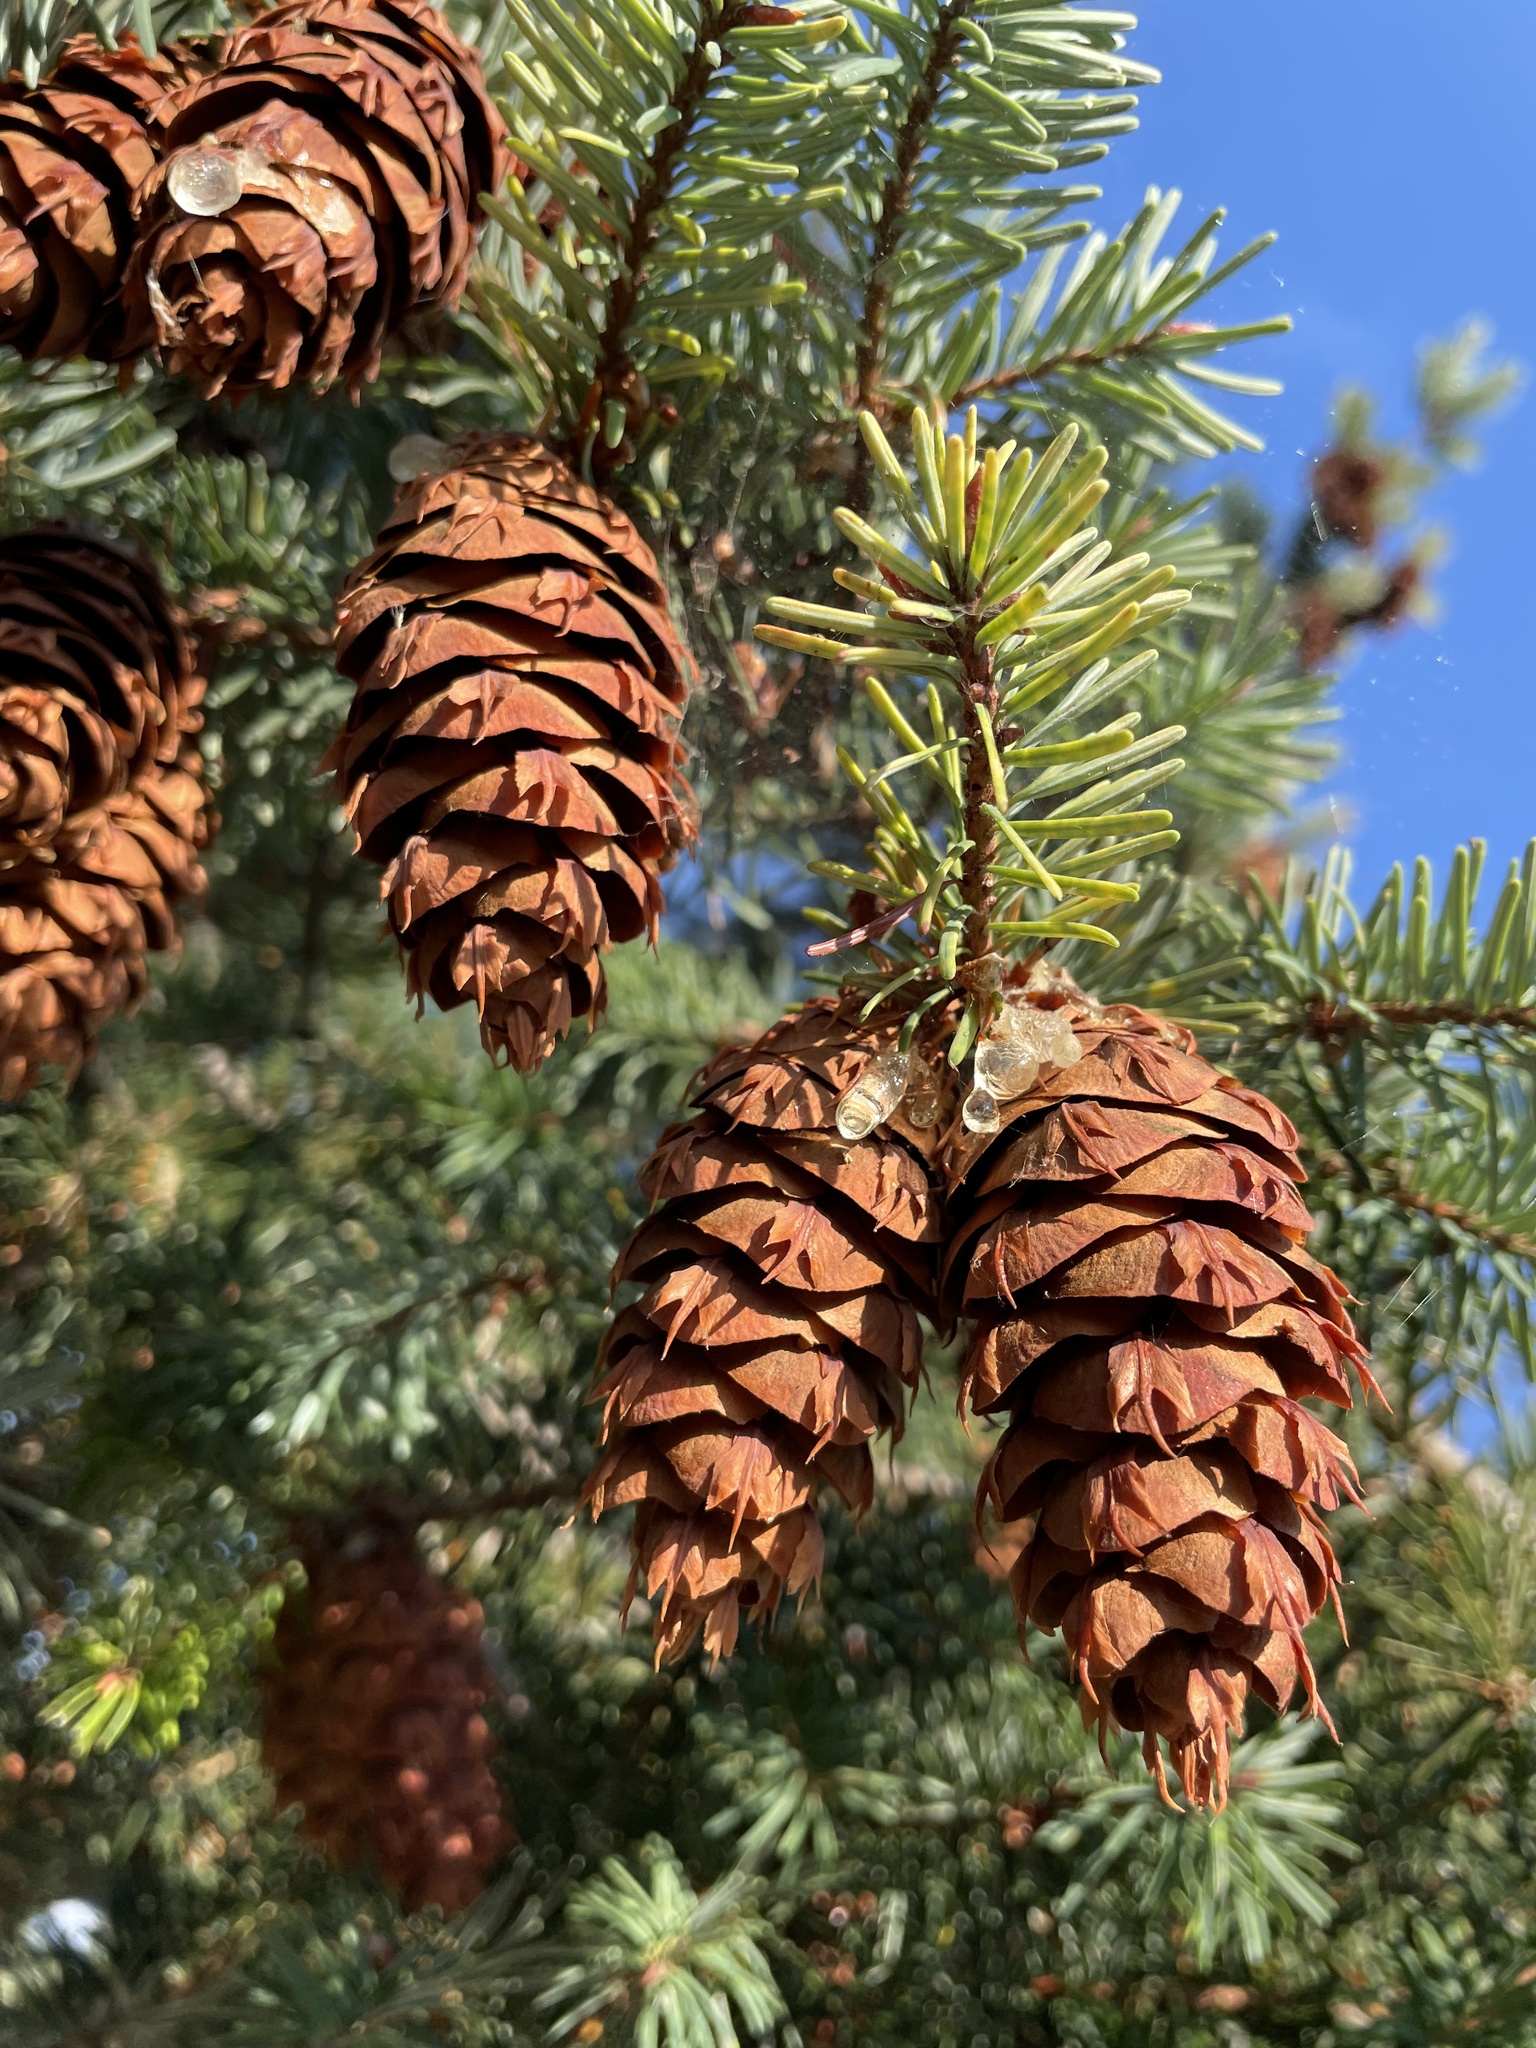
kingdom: Plantae
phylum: Tracheophyta
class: Pinopsida
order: Pinales
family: Pinaceae
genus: Pseudotsuga
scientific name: Pseudotsuga menziesii
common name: Douglas fir
